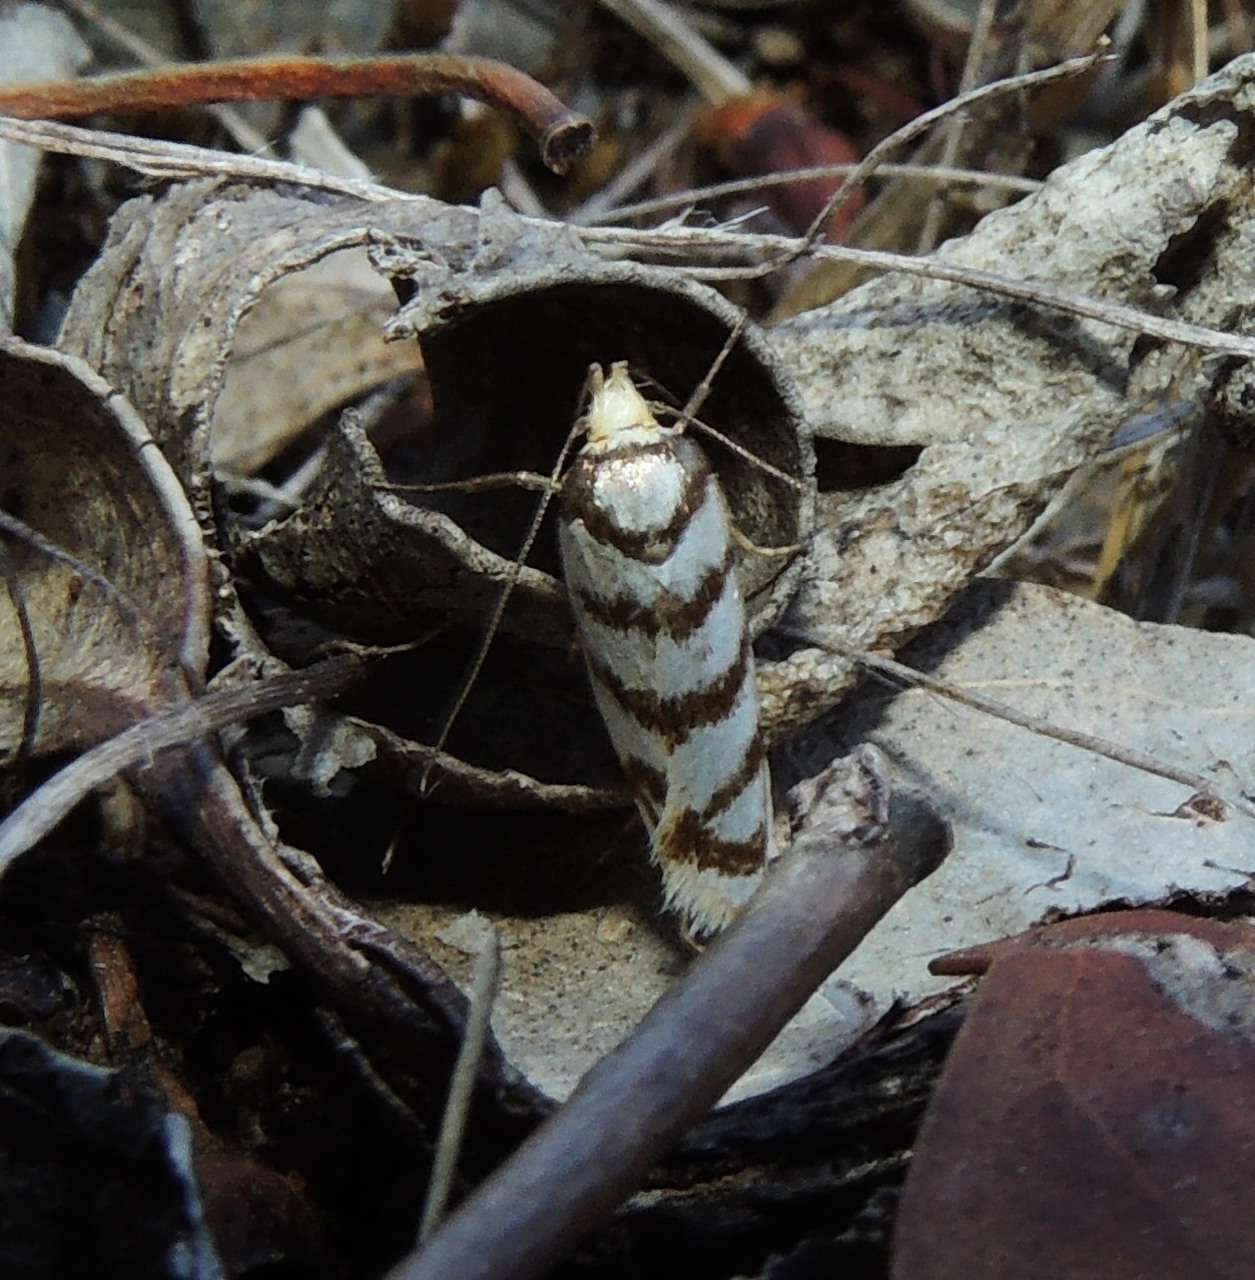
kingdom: Animalia
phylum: Arthropoda
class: Insecta
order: Lepidoptera
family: Oecophoridae
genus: Eulechria
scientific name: Eulechria cyclophragma
